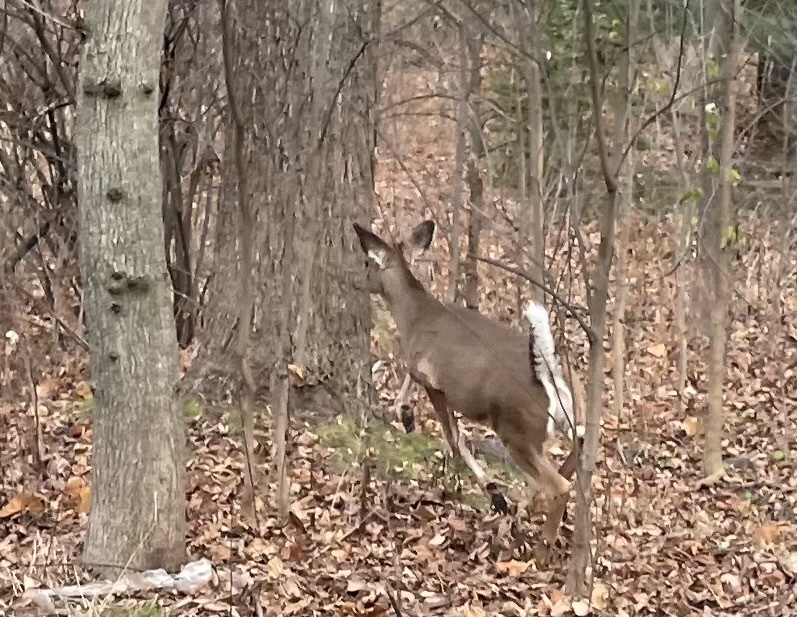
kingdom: Animalia
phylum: Chordata
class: Mammalia
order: Artiodactyla
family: Cervidae
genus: Odocoileus
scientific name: Odocoileus virginianus
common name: White-tailed deer
